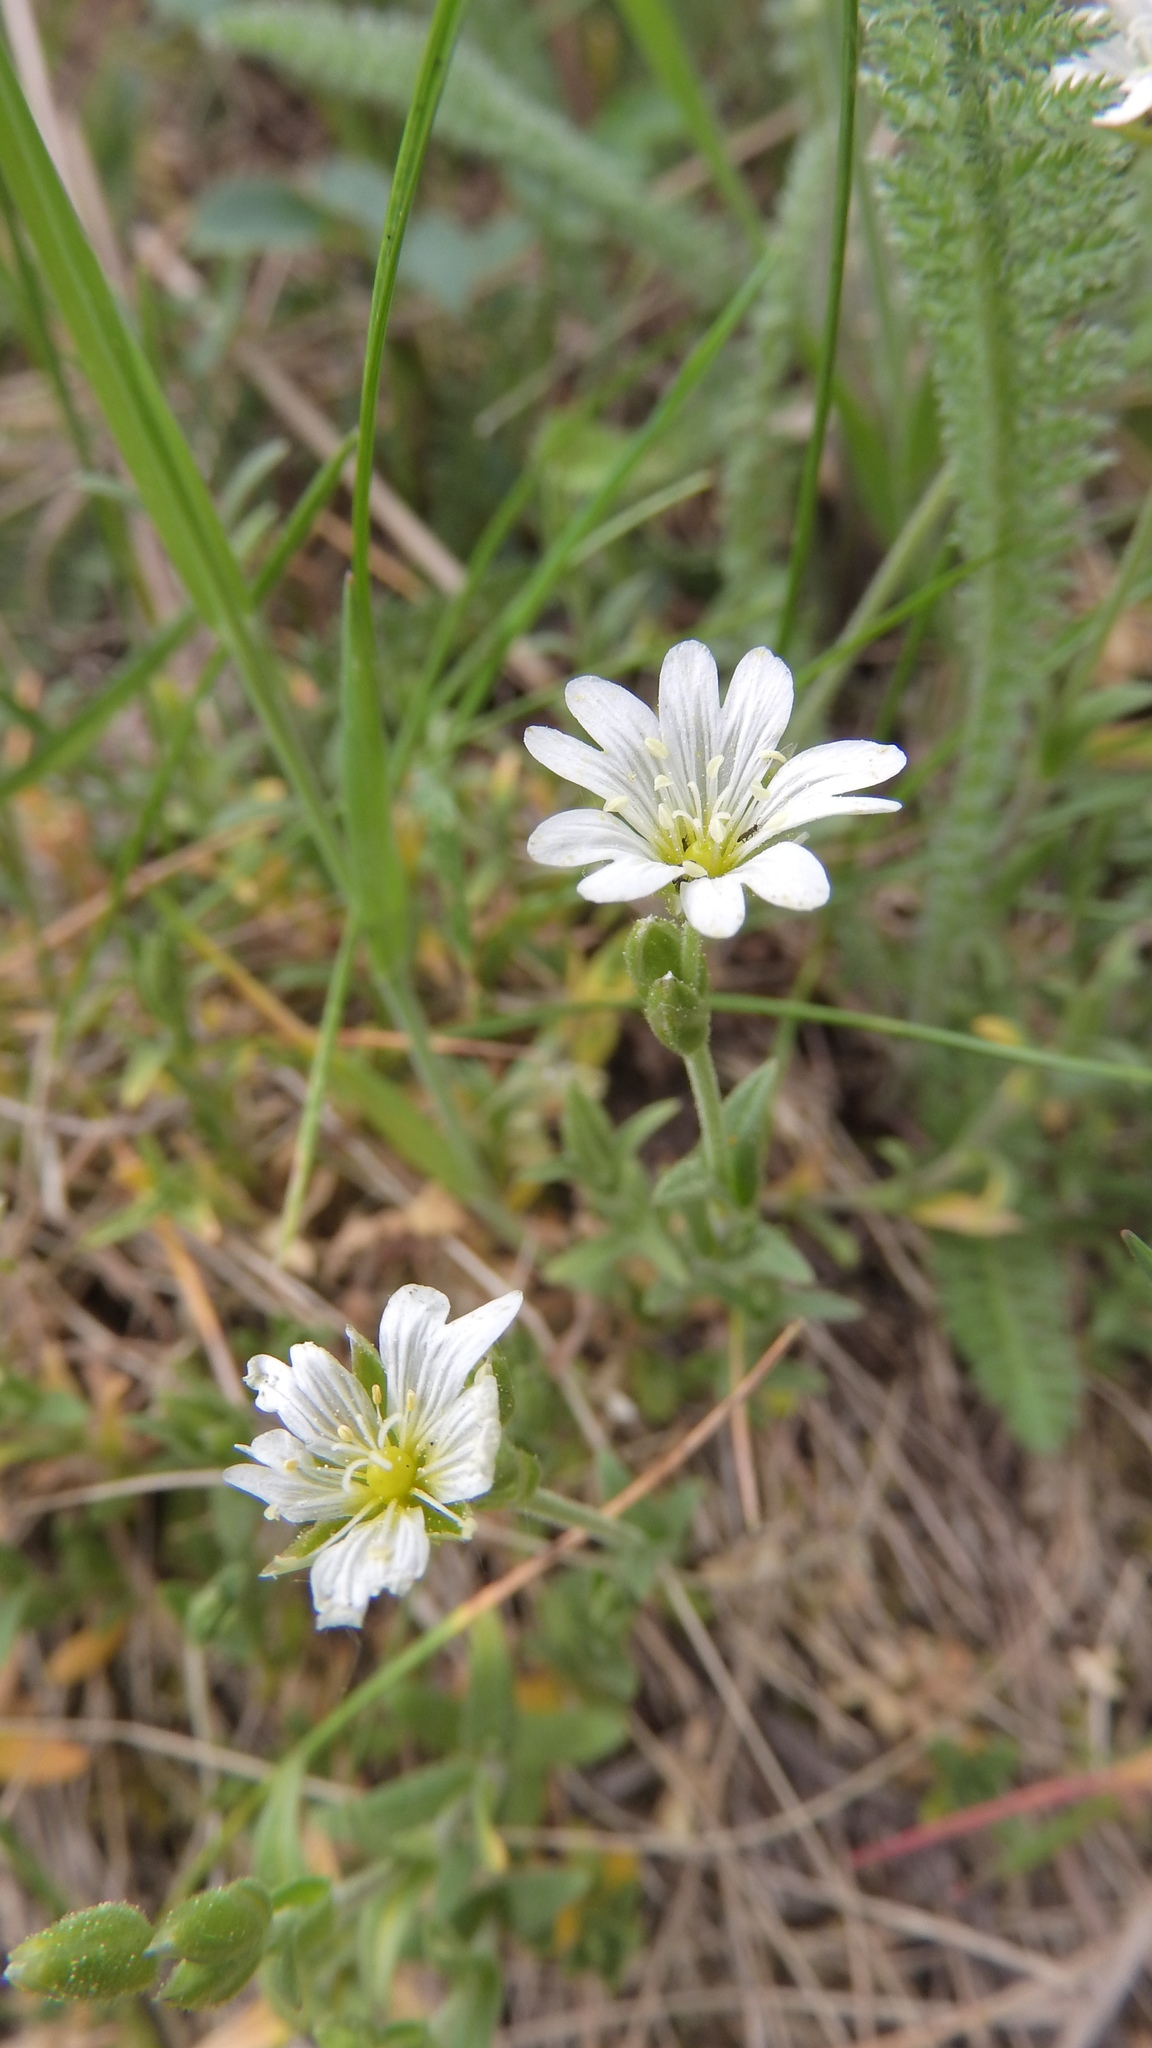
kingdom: Plantae
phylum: Tracheophyta
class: Magnoliopsida
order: Caryophyllales
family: Caryophyllaceae
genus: Cerastium
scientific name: Cerastium arvense
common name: Field mouse-ear
